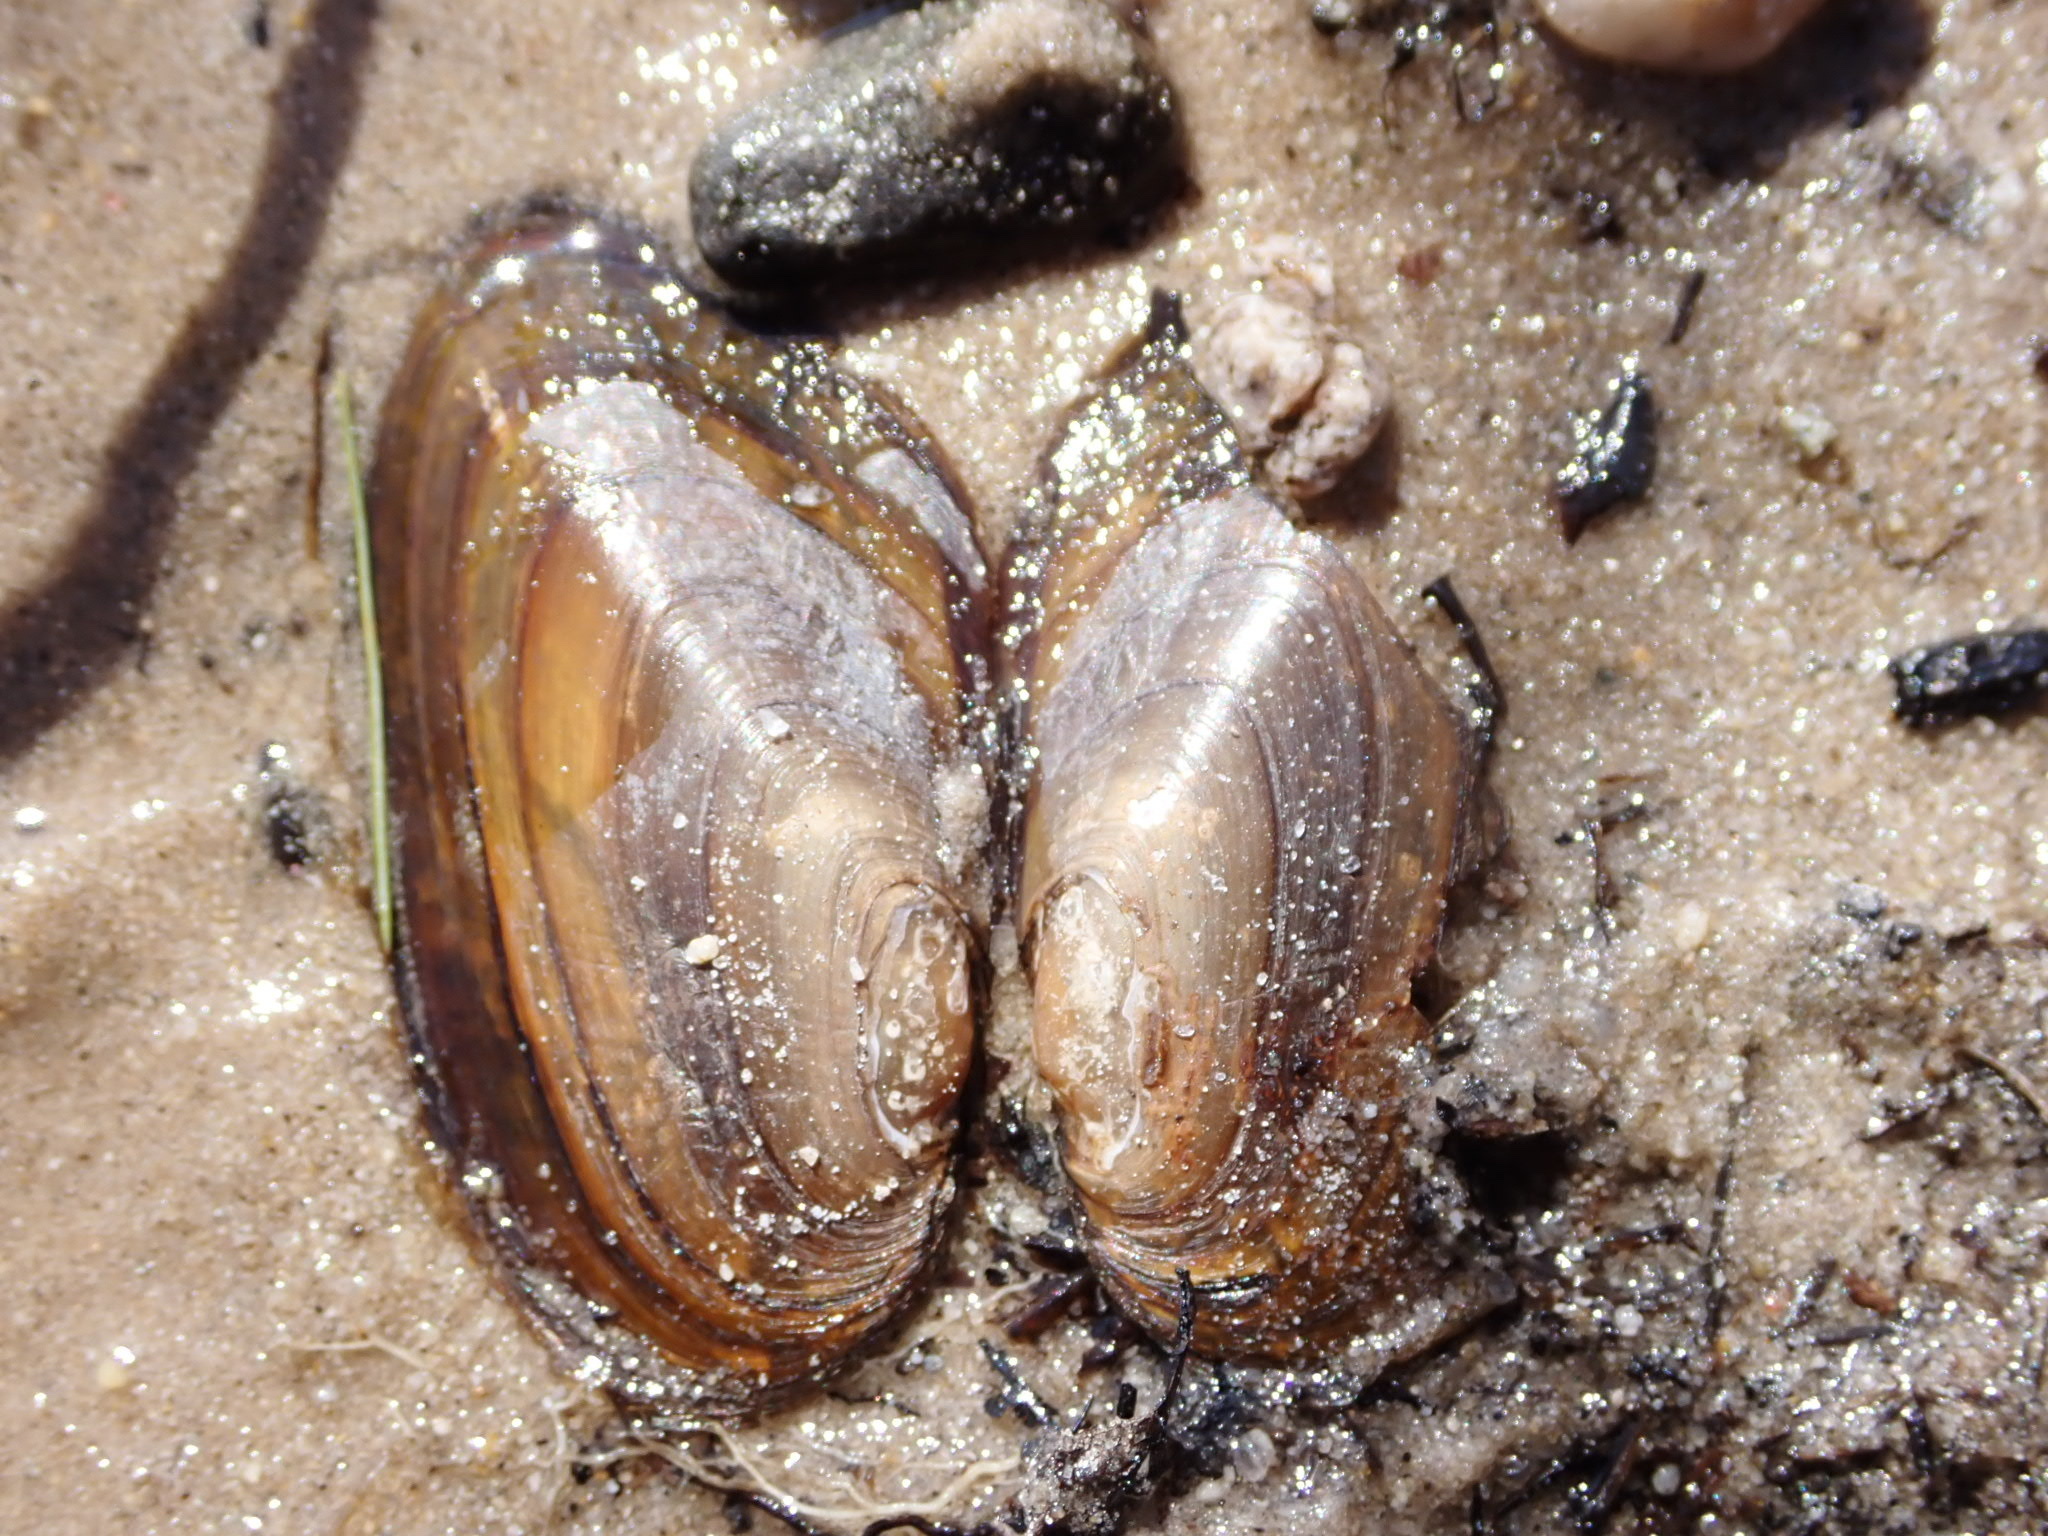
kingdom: Animalia
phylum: Mollusca
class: Bivalvia
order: Unionida
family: Unionidae
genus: Elliptio
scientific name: Elliptio complanata
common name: Eastern elliptio
